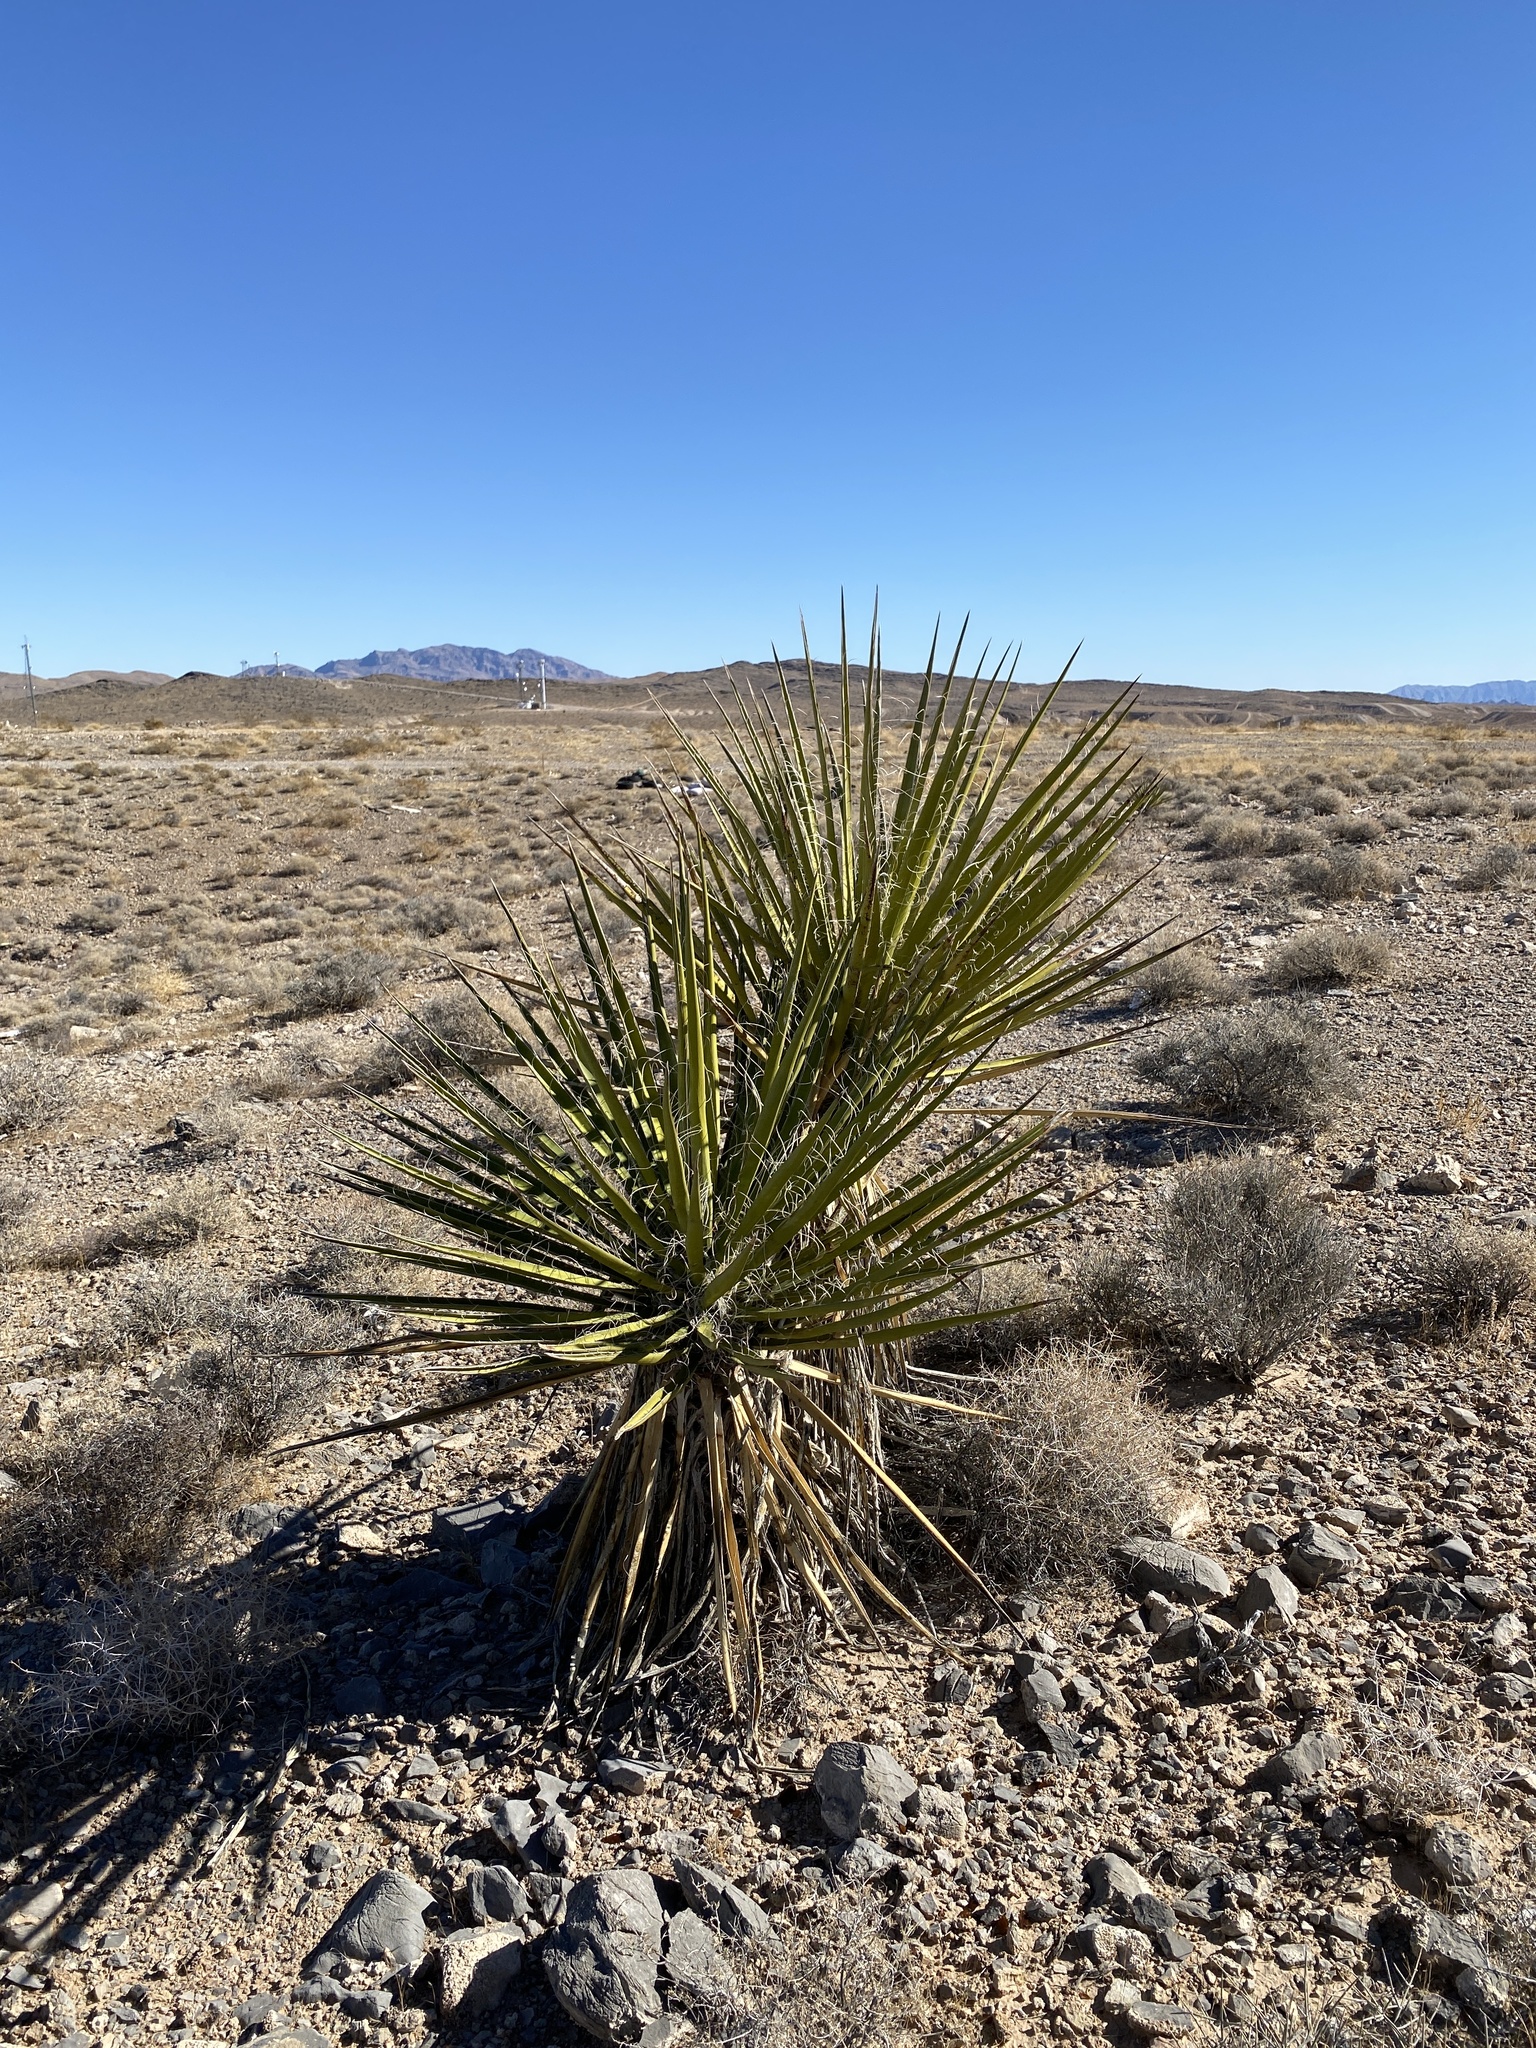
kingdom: Plantae
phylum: Tracheophyta
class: Liliopsida
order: Asparagales
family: Asparagaceae
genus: Yucca
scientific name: Yucca schidigera
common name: Mojave yucca
